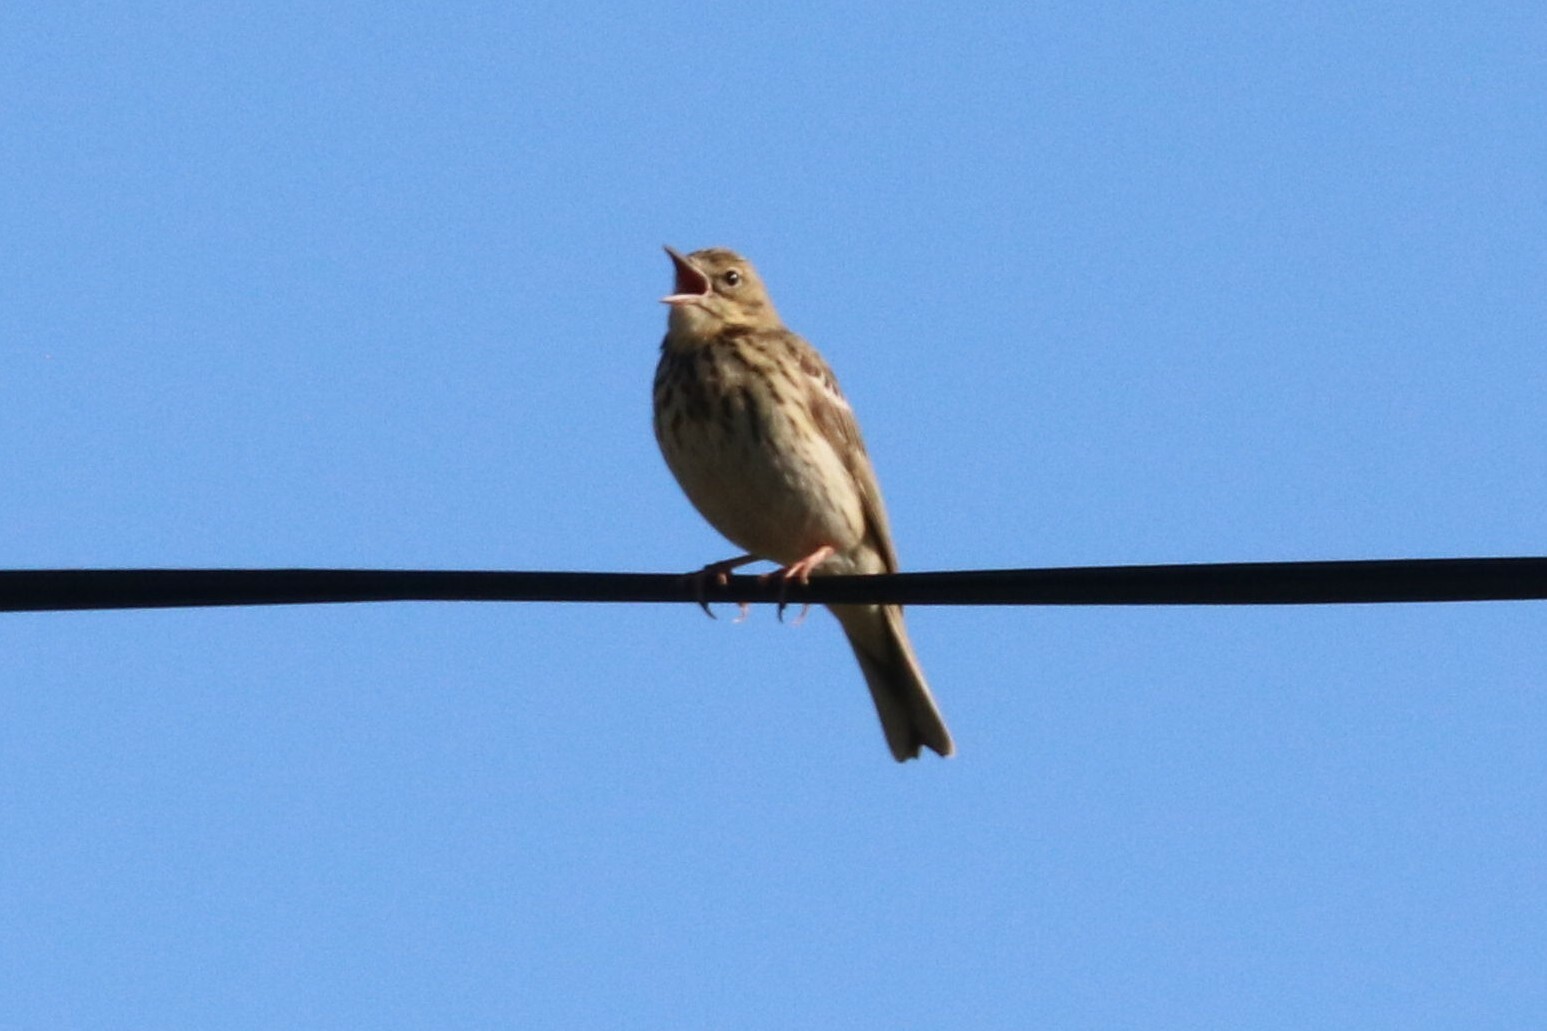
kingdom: Animalia
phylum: Chordata
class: Aves
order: Passeriformes
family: Motacillidae
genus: Anthus
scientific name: Anthus trivialis
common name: Tree pipit
